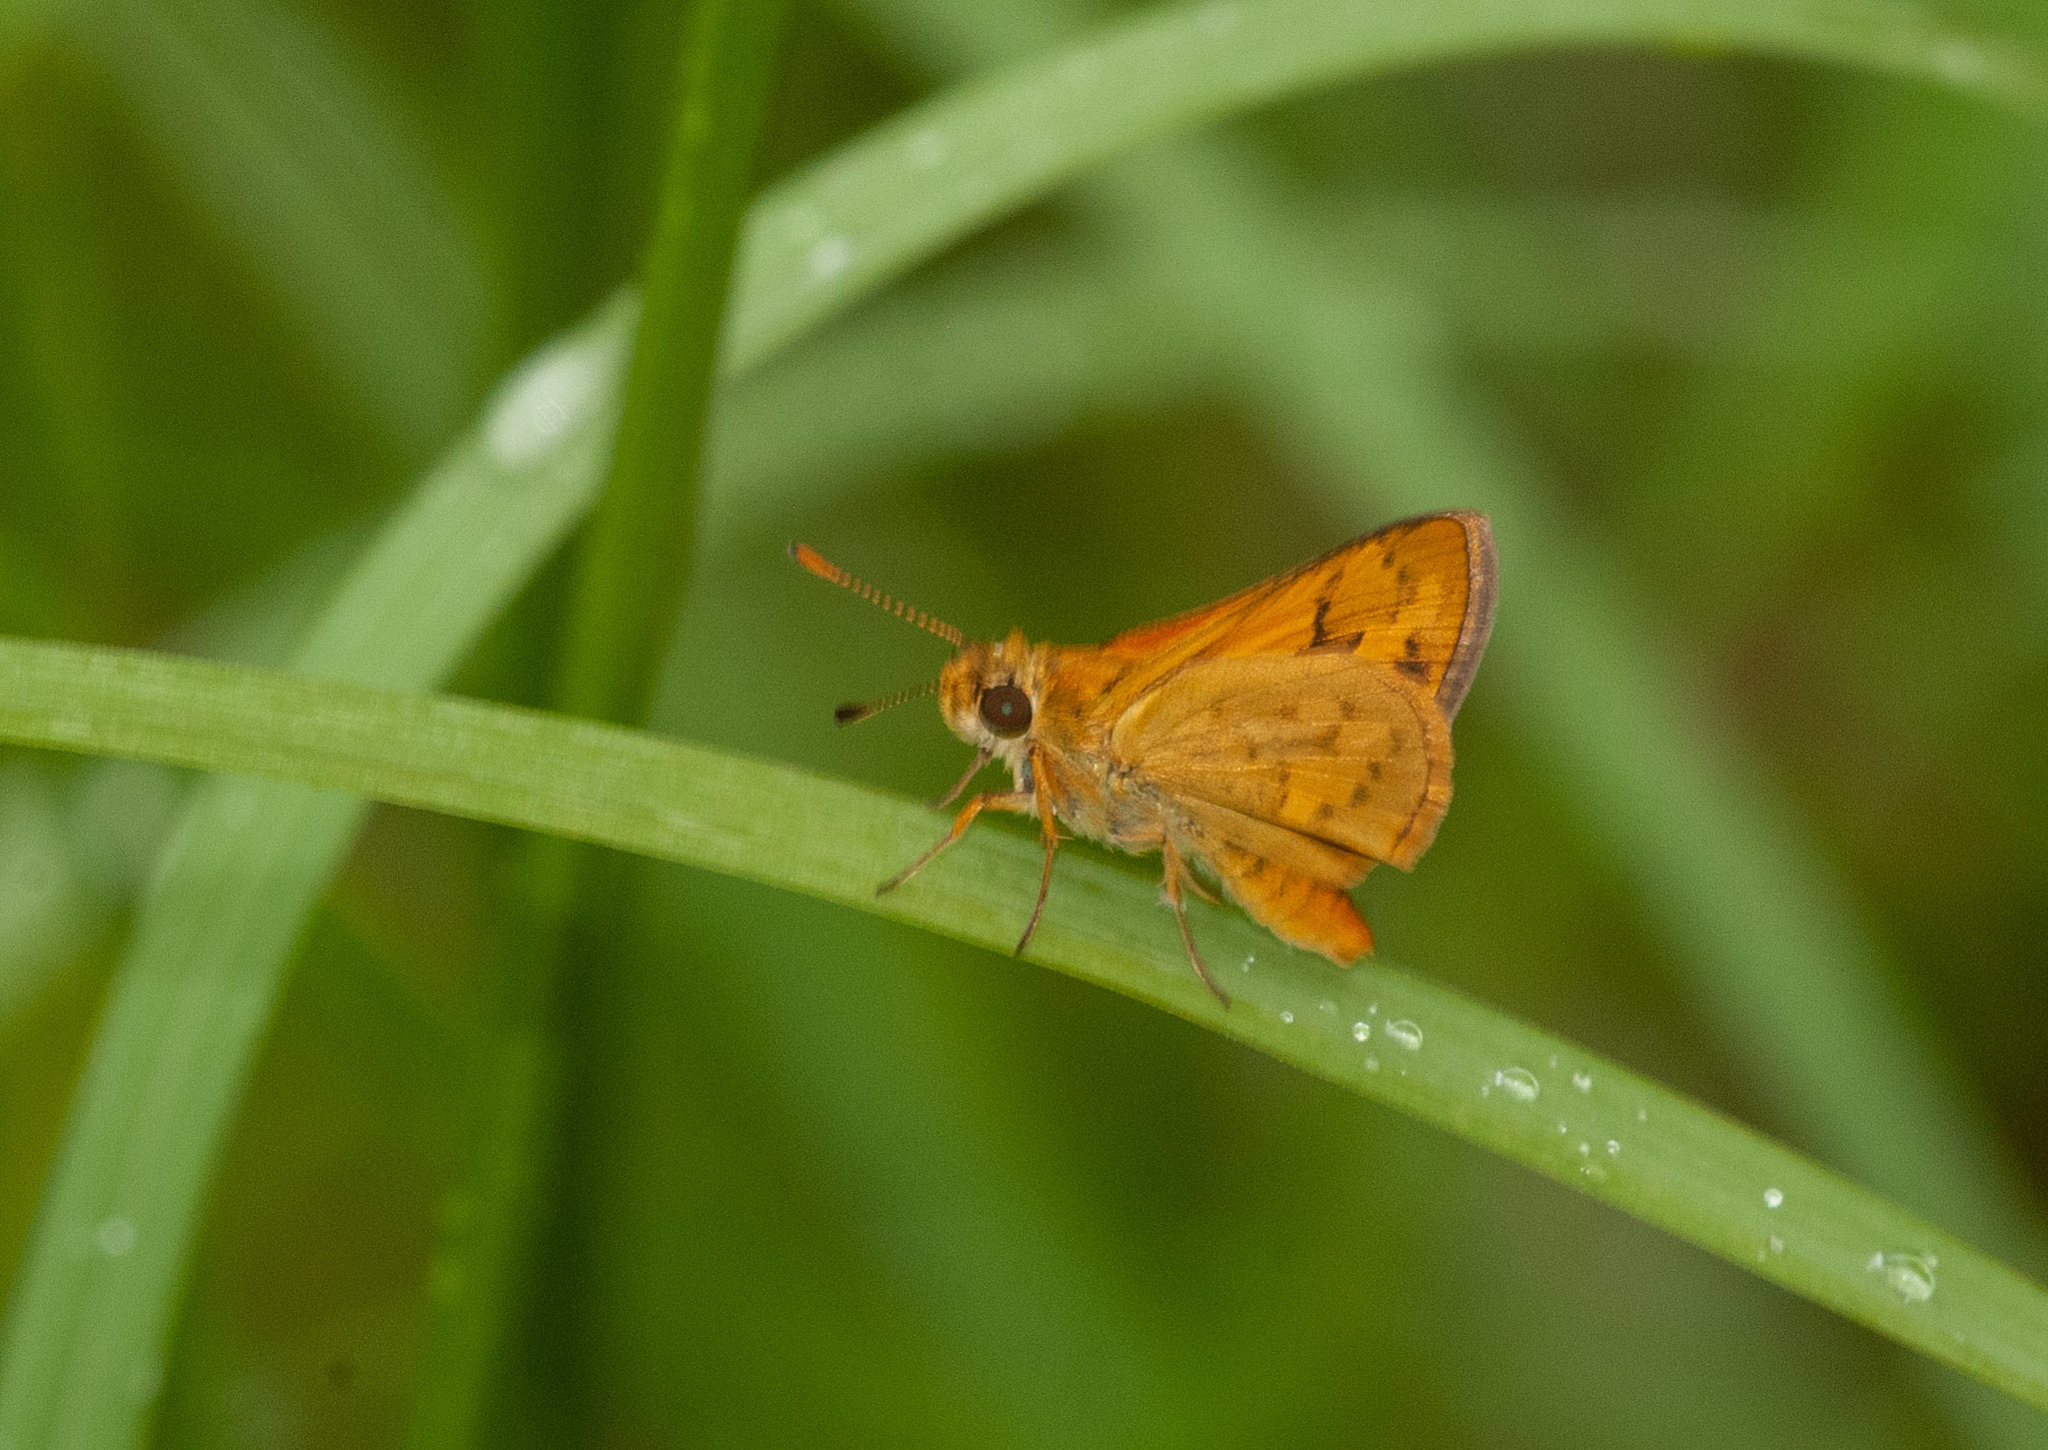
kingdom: Animalia
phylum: Arthropoda
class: Insecta
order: Lepidoptera
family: Hesperiidae
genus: Ocybadistes
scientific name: Ocybadistes walkeri
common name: Yellow-banded dart
